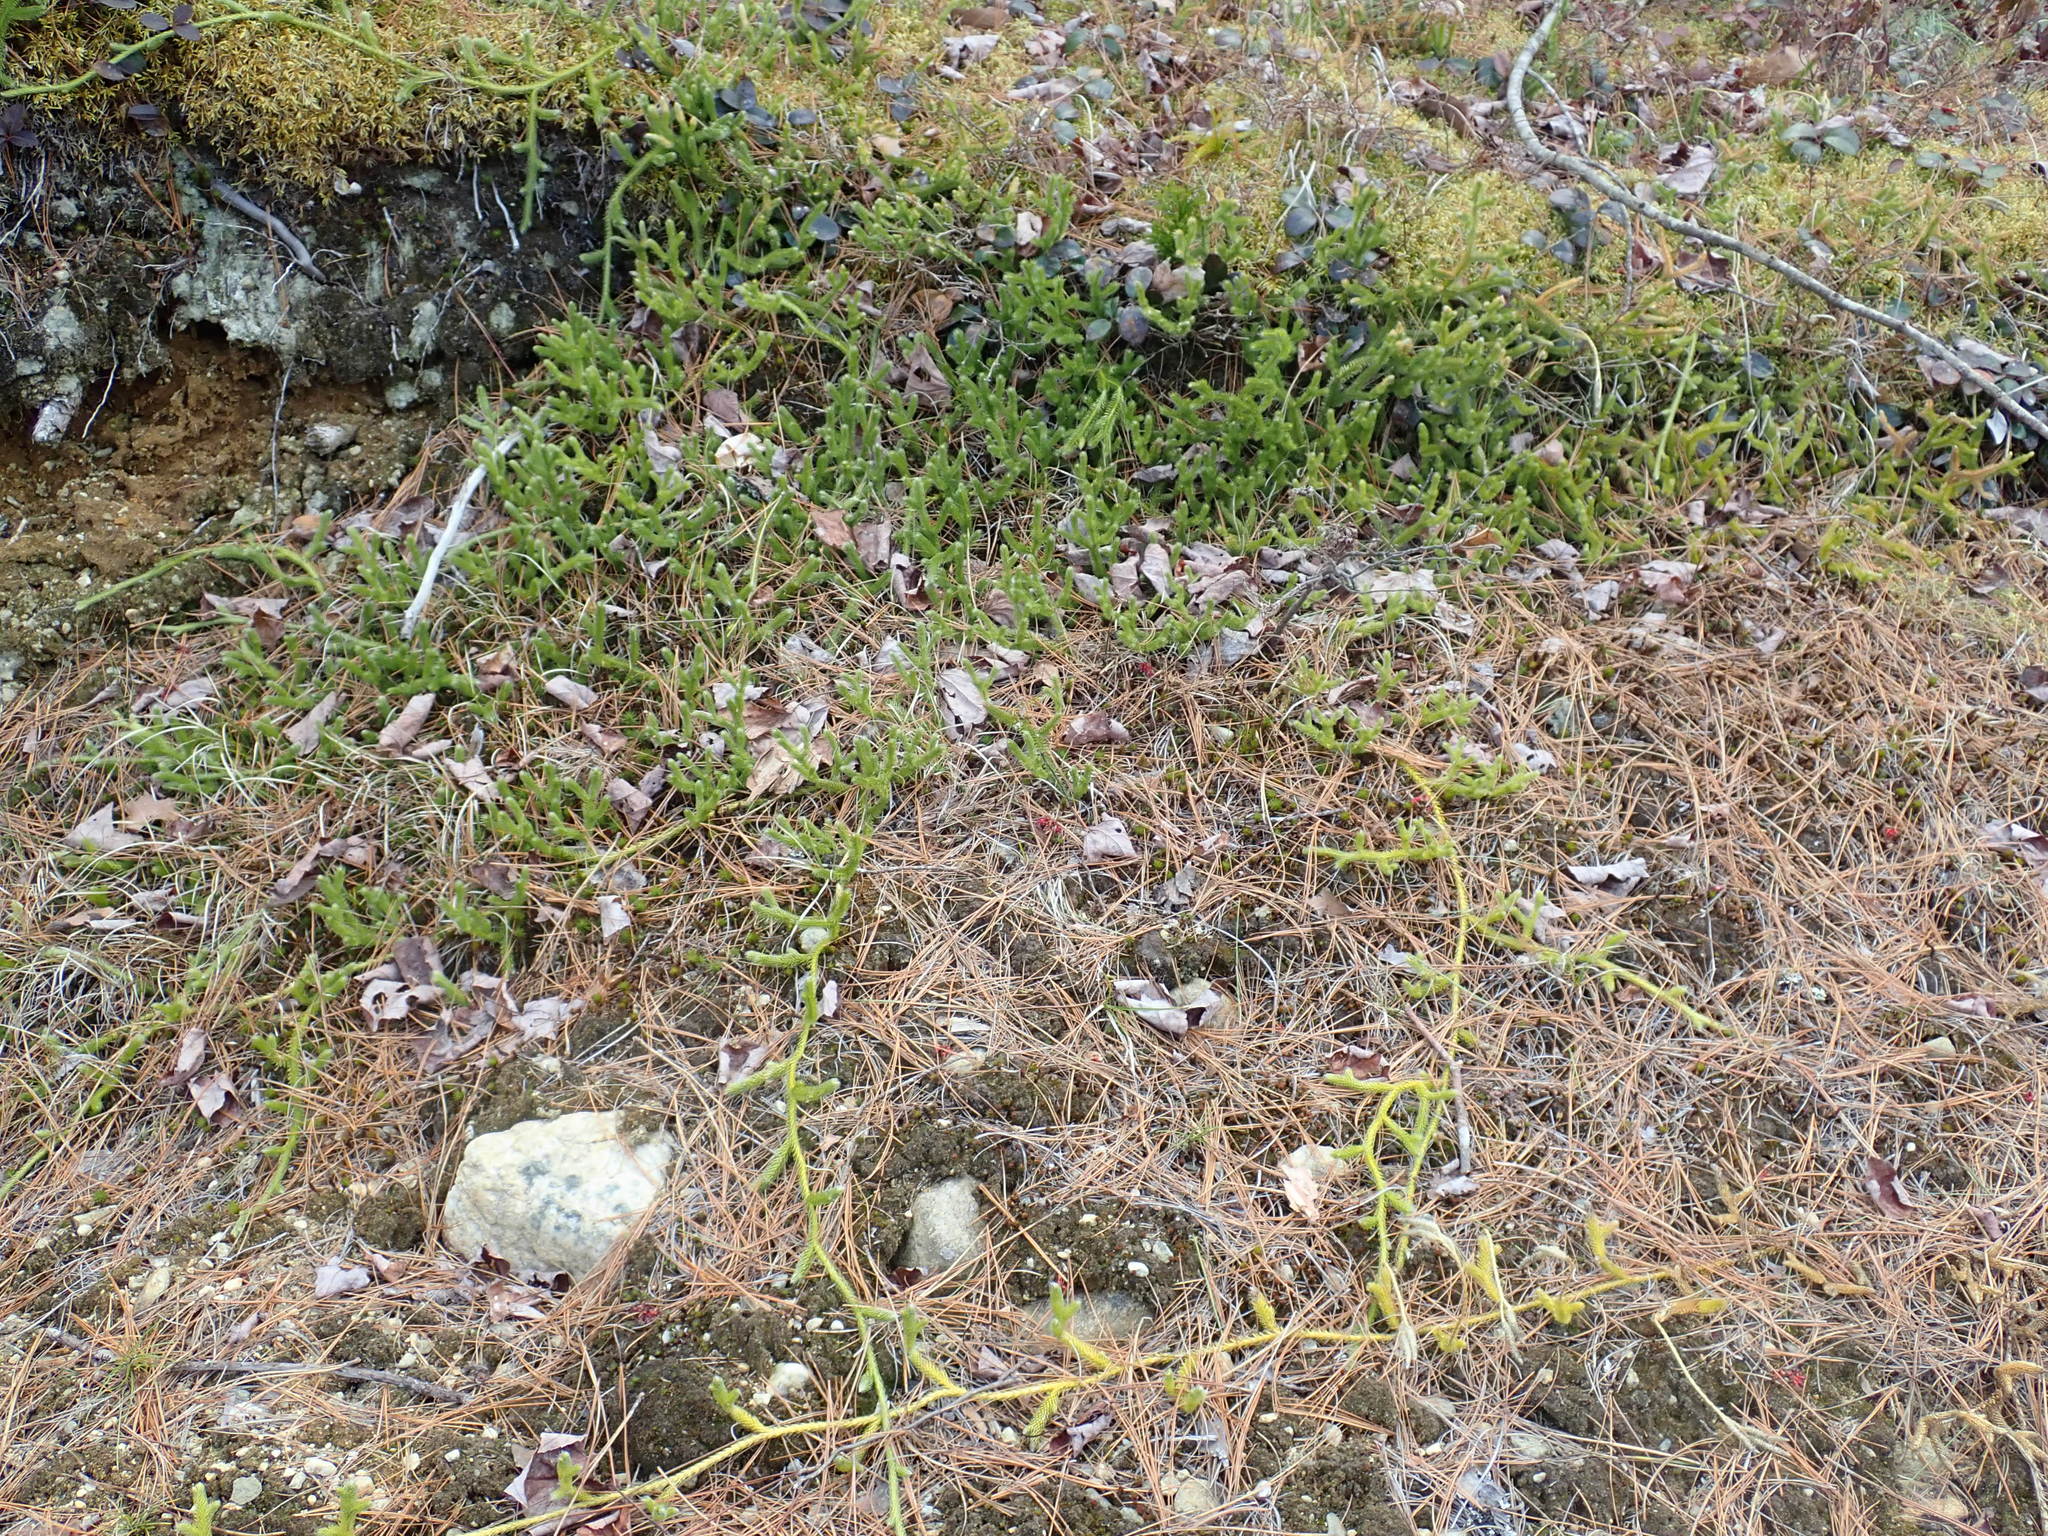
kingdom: Plantae
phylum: Tracheophyta
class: Lycopodiopsida
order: Lycopodiales
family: Lycopodiaceae
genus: Lycopodium
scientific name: Lycopodium clavatum
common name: Stag's-horn clubmoss
